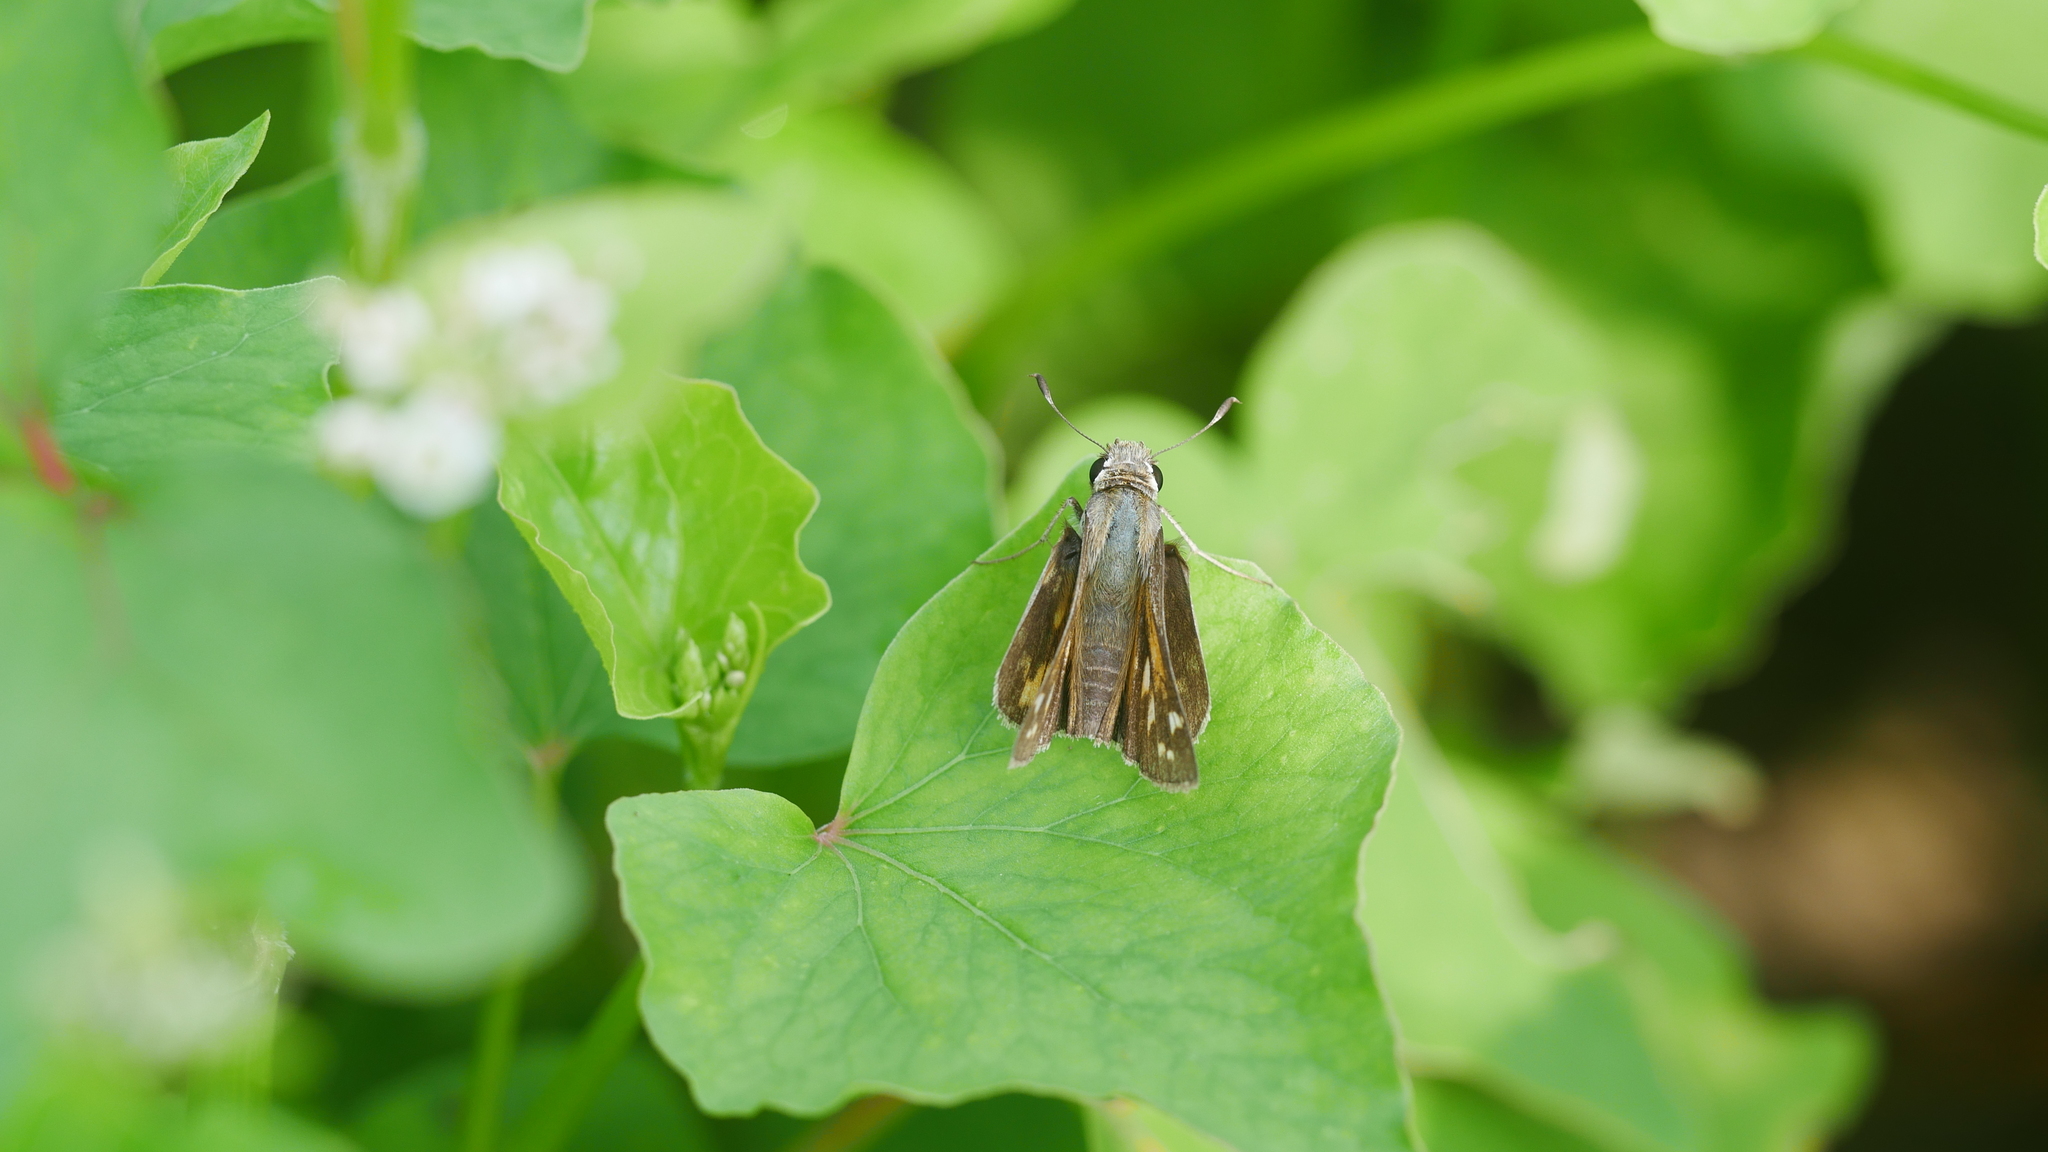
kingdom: Animalia
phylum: Arthropoda
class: Insecta
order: Lepidoptera
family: Hesperiidae
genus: Atalopedes
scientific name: Atalopedes
